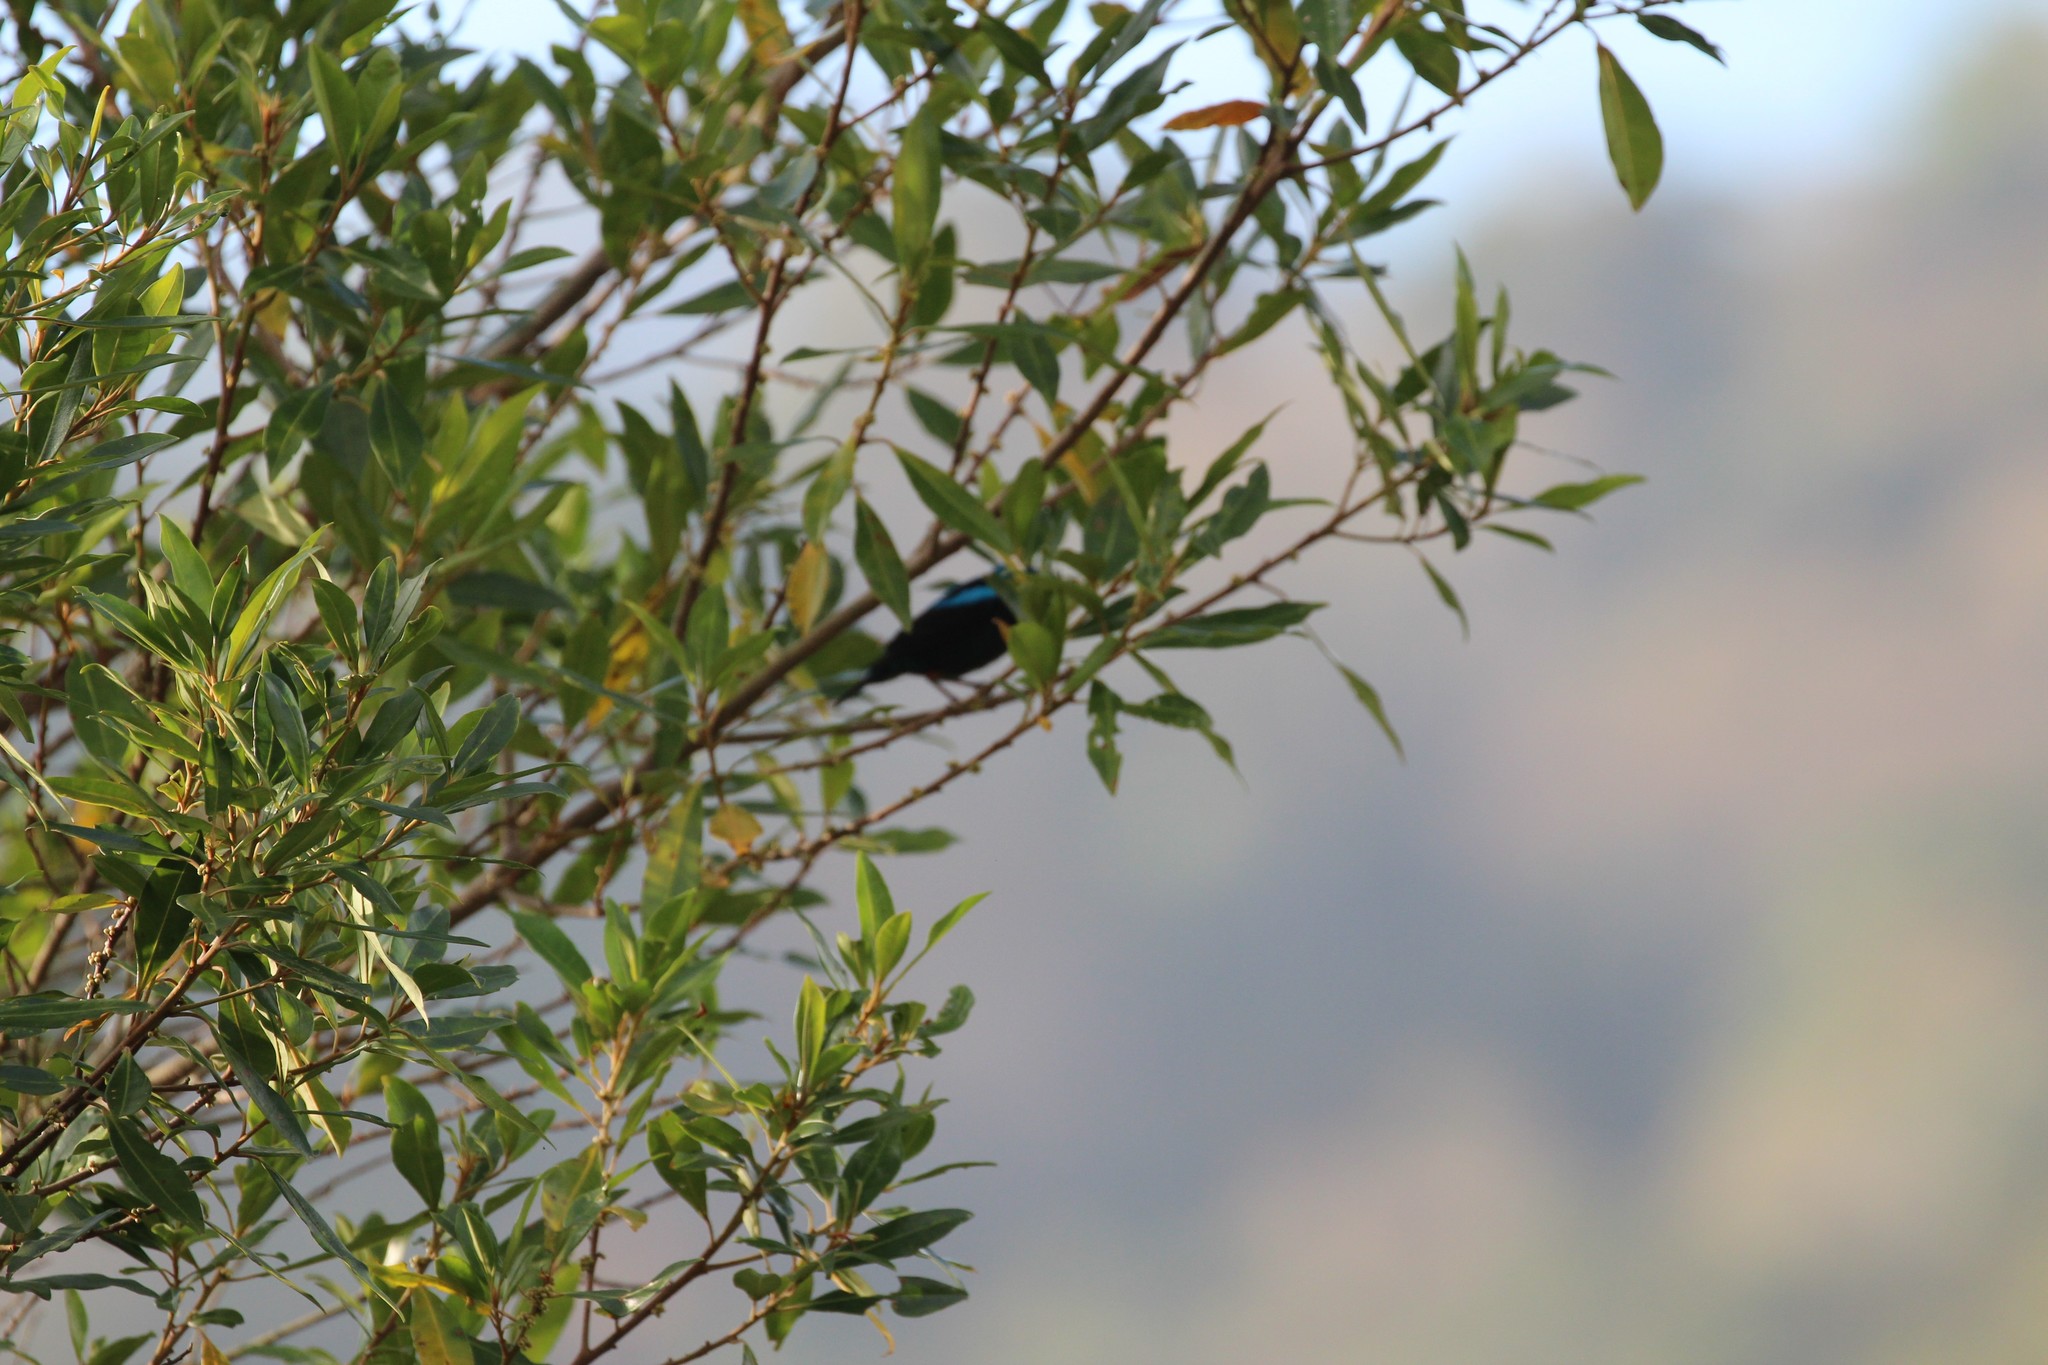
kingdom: Animalia
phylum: Chordata
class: Aves
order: Passeriformes
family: Thraupidae
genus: Dacnis
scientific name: Dacnis venusta
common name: Scarlet-thighed dacnis
